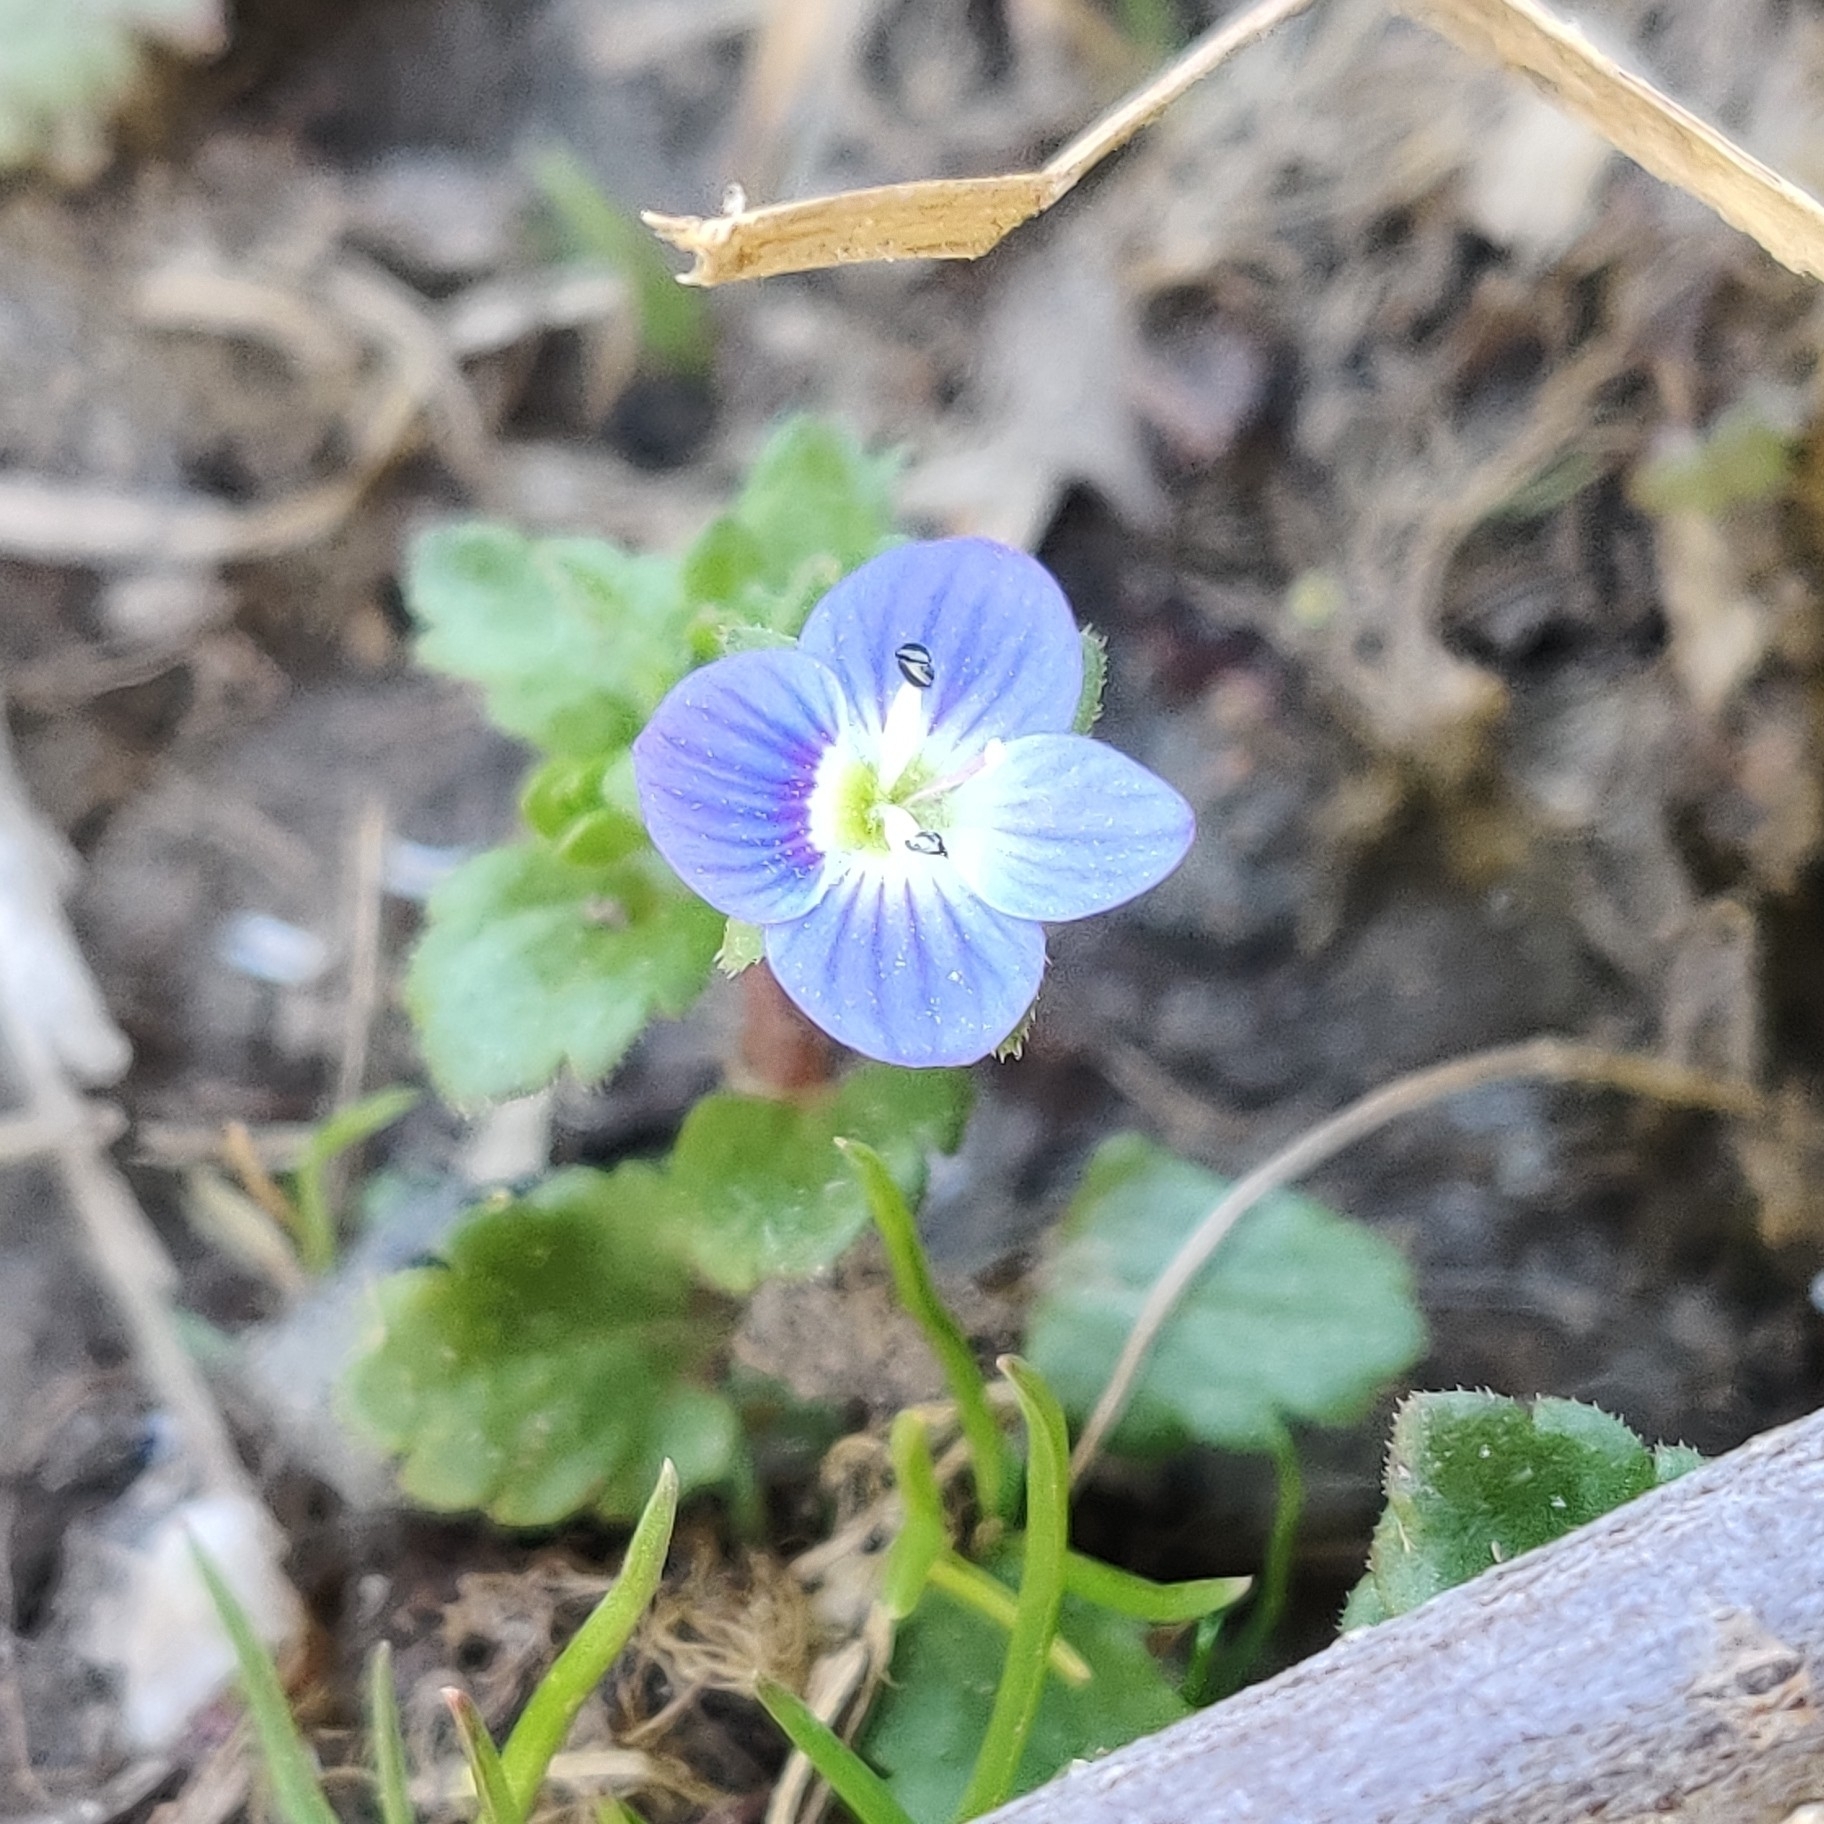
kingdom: Plantae
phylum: Tracheophyta
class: Magnoliopsida
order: Lamiales
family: Plantaginaceae
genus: Veronica
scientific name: Veronica persica
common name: Common field-speedwell
